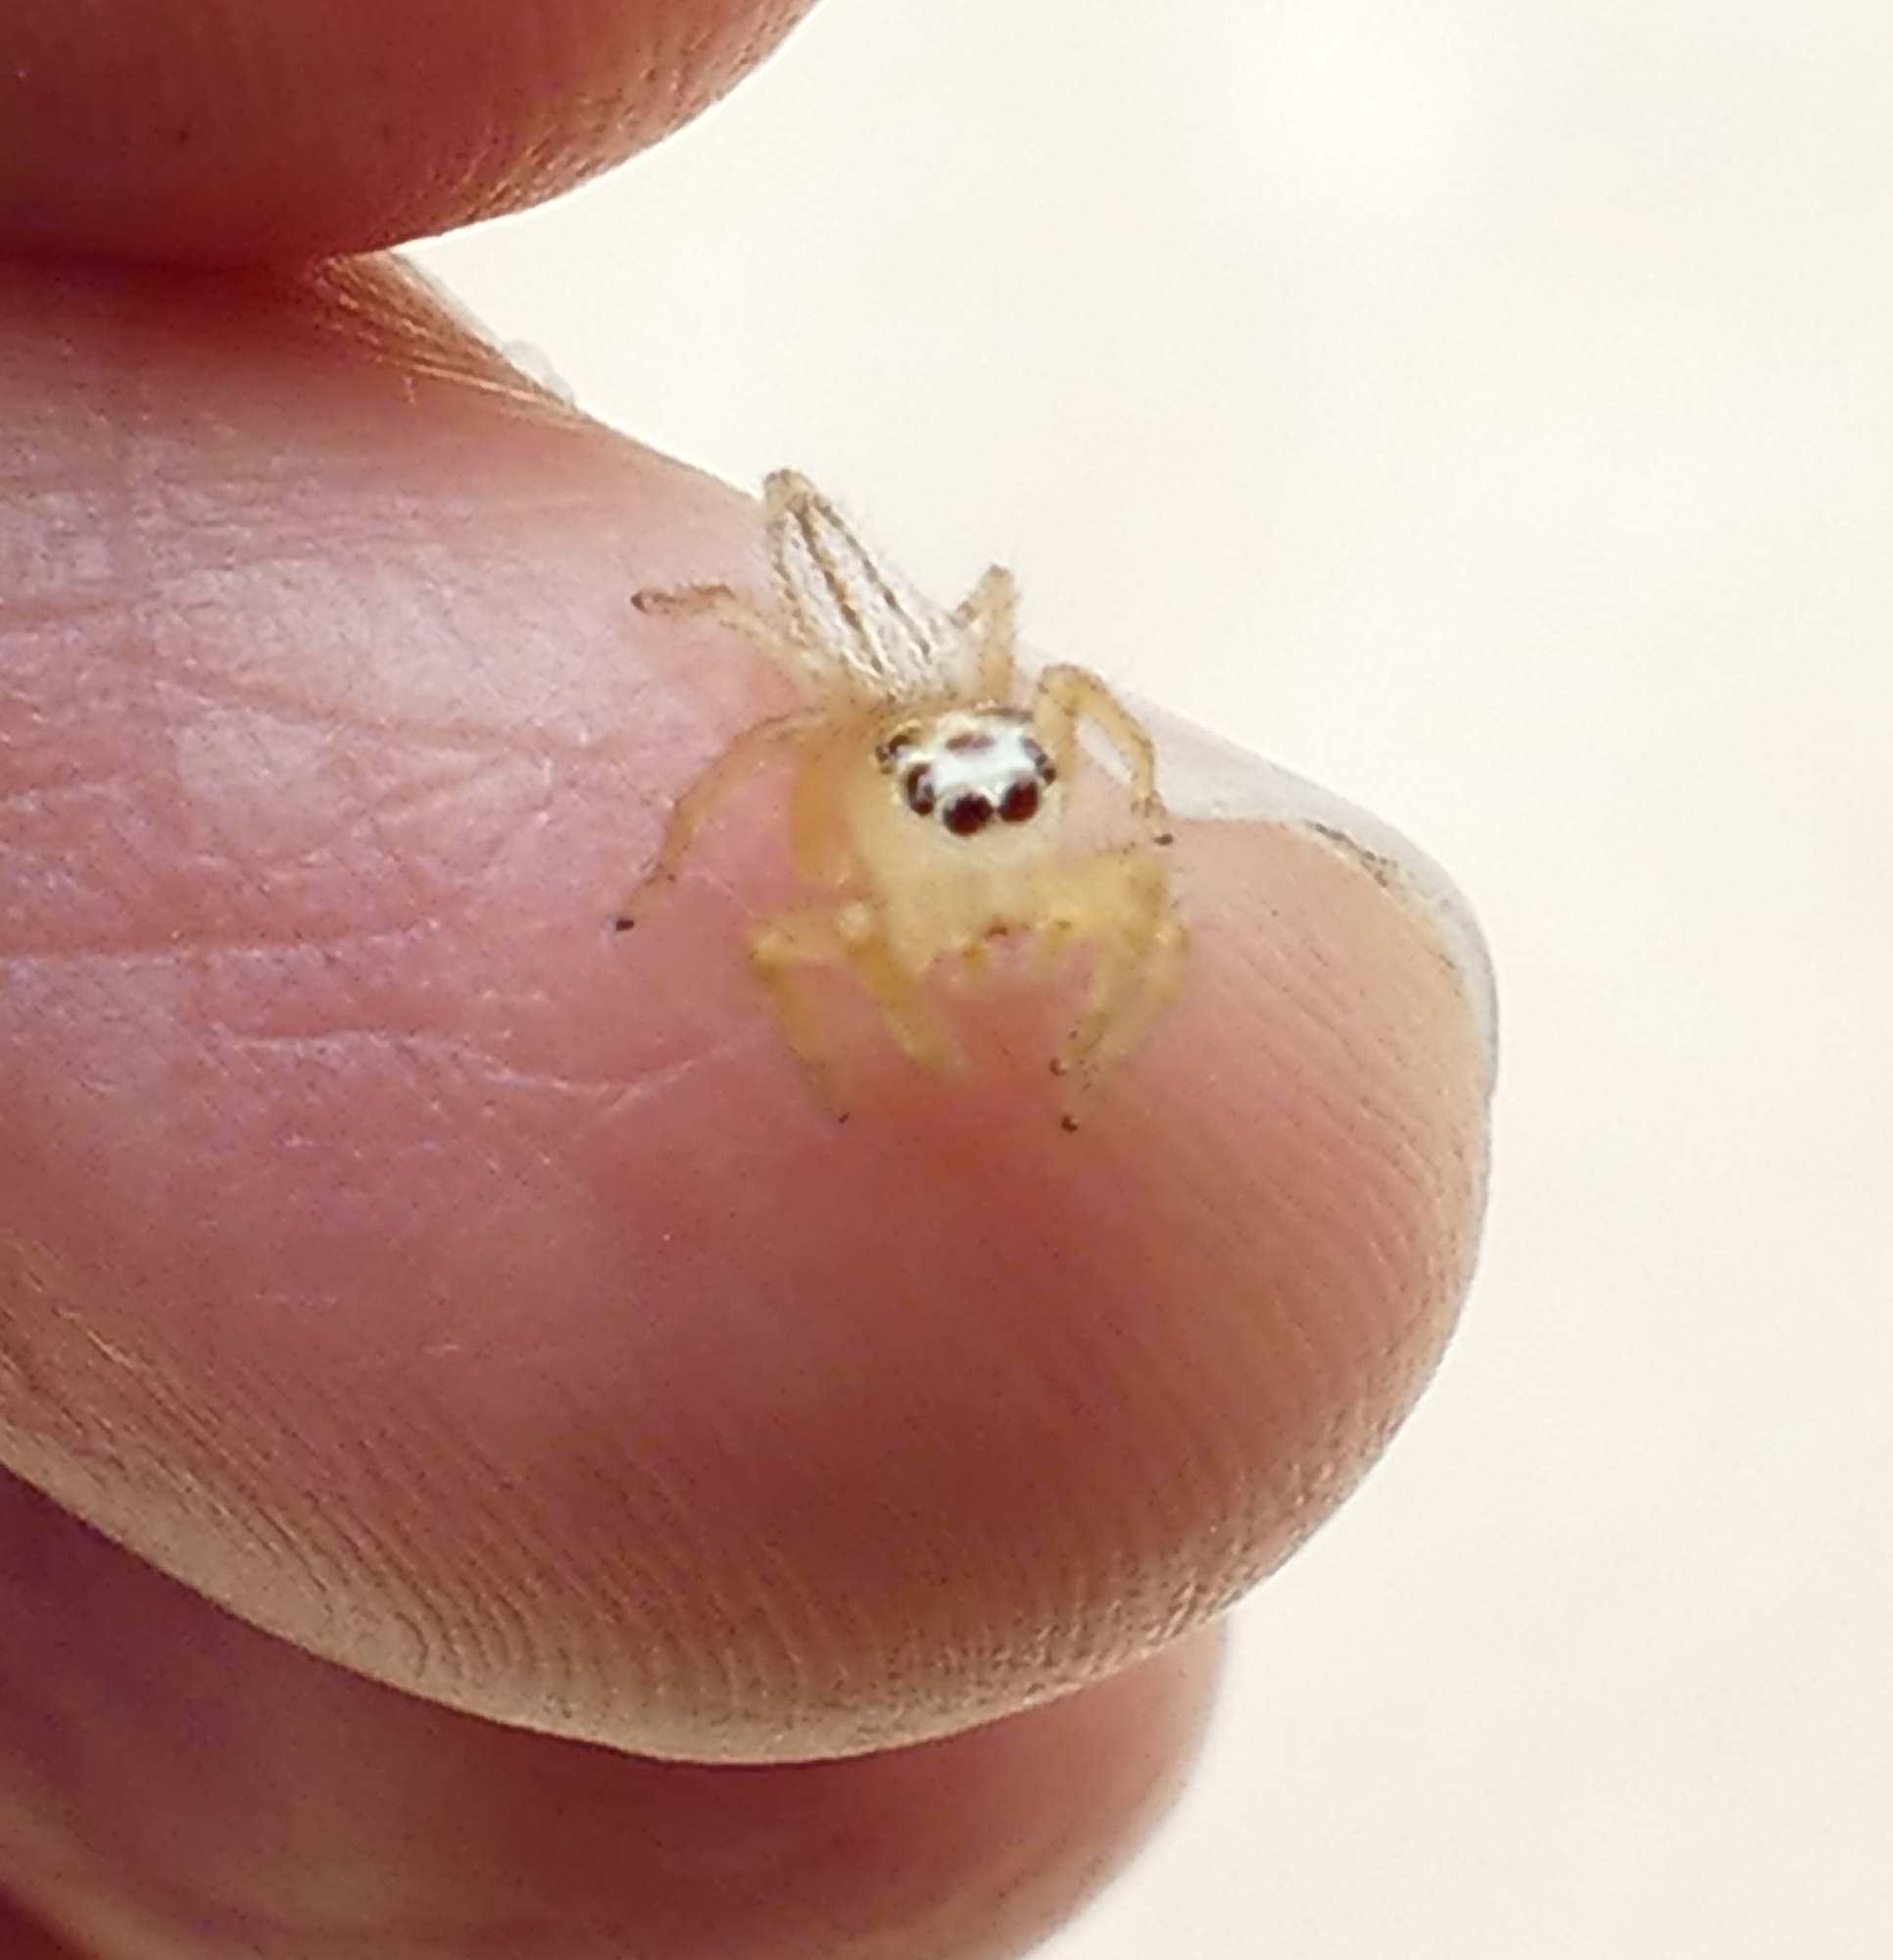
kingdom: Animalia
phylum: Arthropoda
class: Arachnida
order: Araneae
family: Salticidae
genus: Colonus
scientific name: Colonus sylvanus
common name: Jumping spiders
